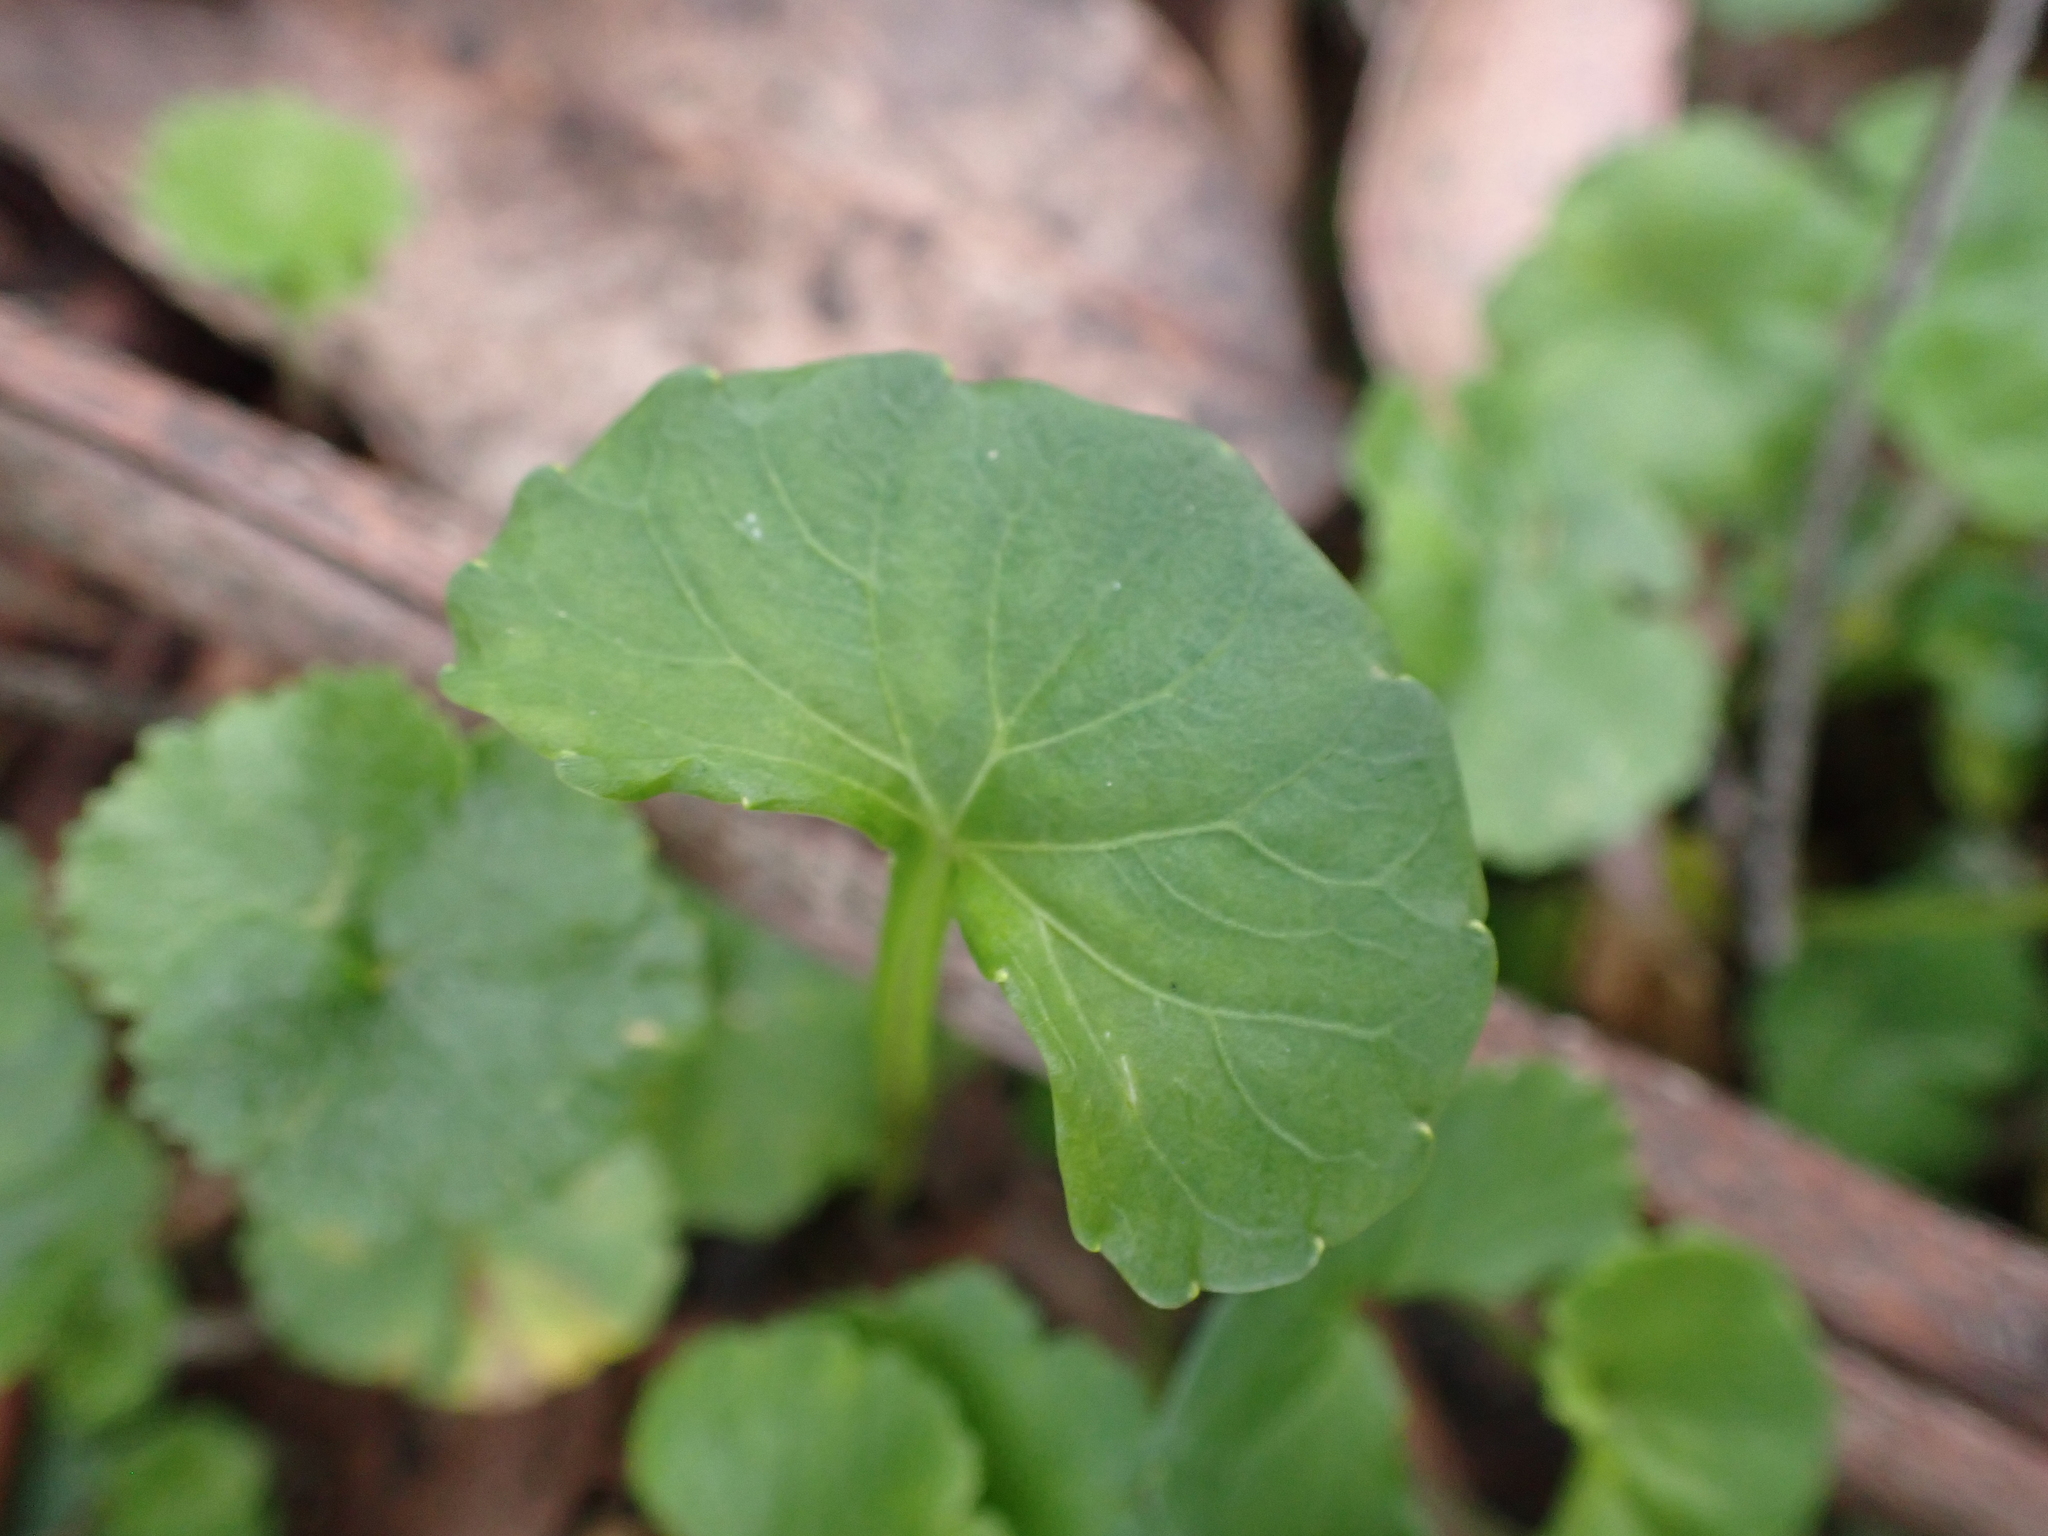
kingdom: Plantae
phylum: Tracheophyta
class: Magnoliopsida
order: Malpighiales
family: Violaceae
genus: Viola
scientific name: Viola eminens
